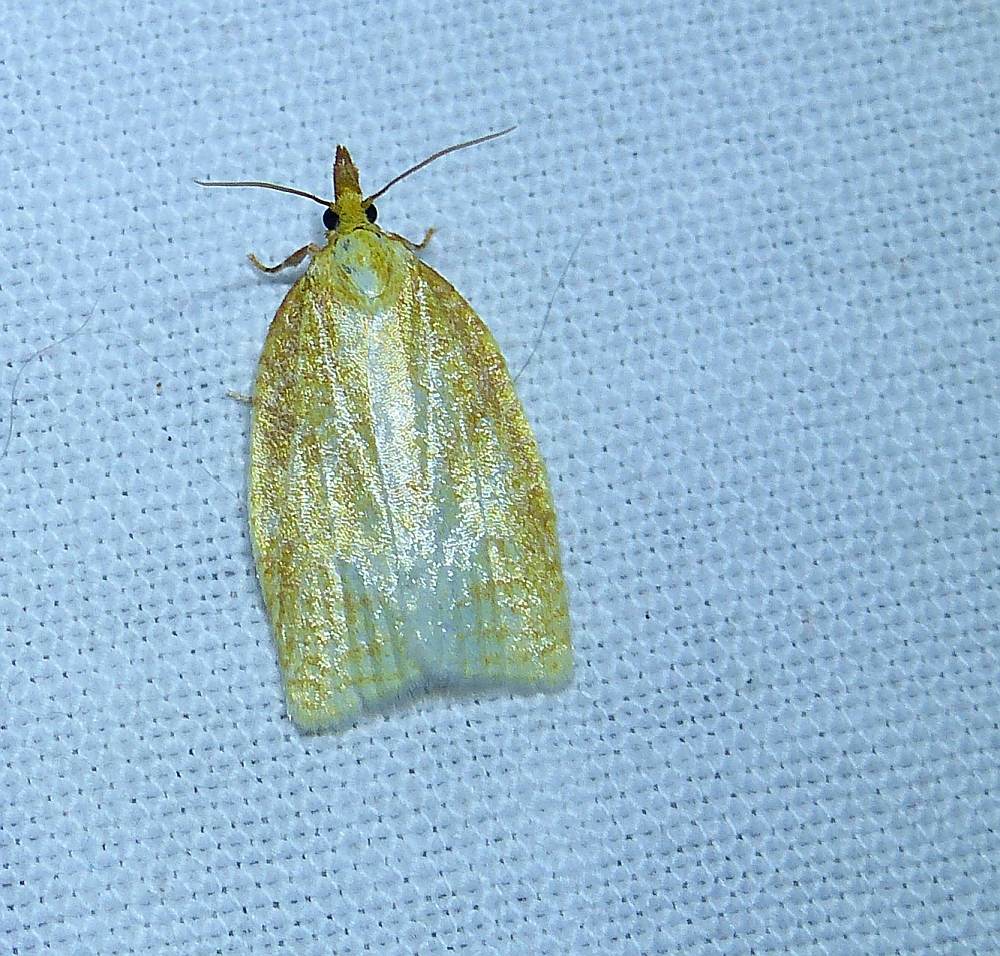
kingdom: Animalia
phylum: Arthropoda
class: Insecta
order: Lepidoptera
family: Tortricidae
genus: Cenopis
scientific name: Cenopis pettitana
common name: Maple-basswood leafroller moth
